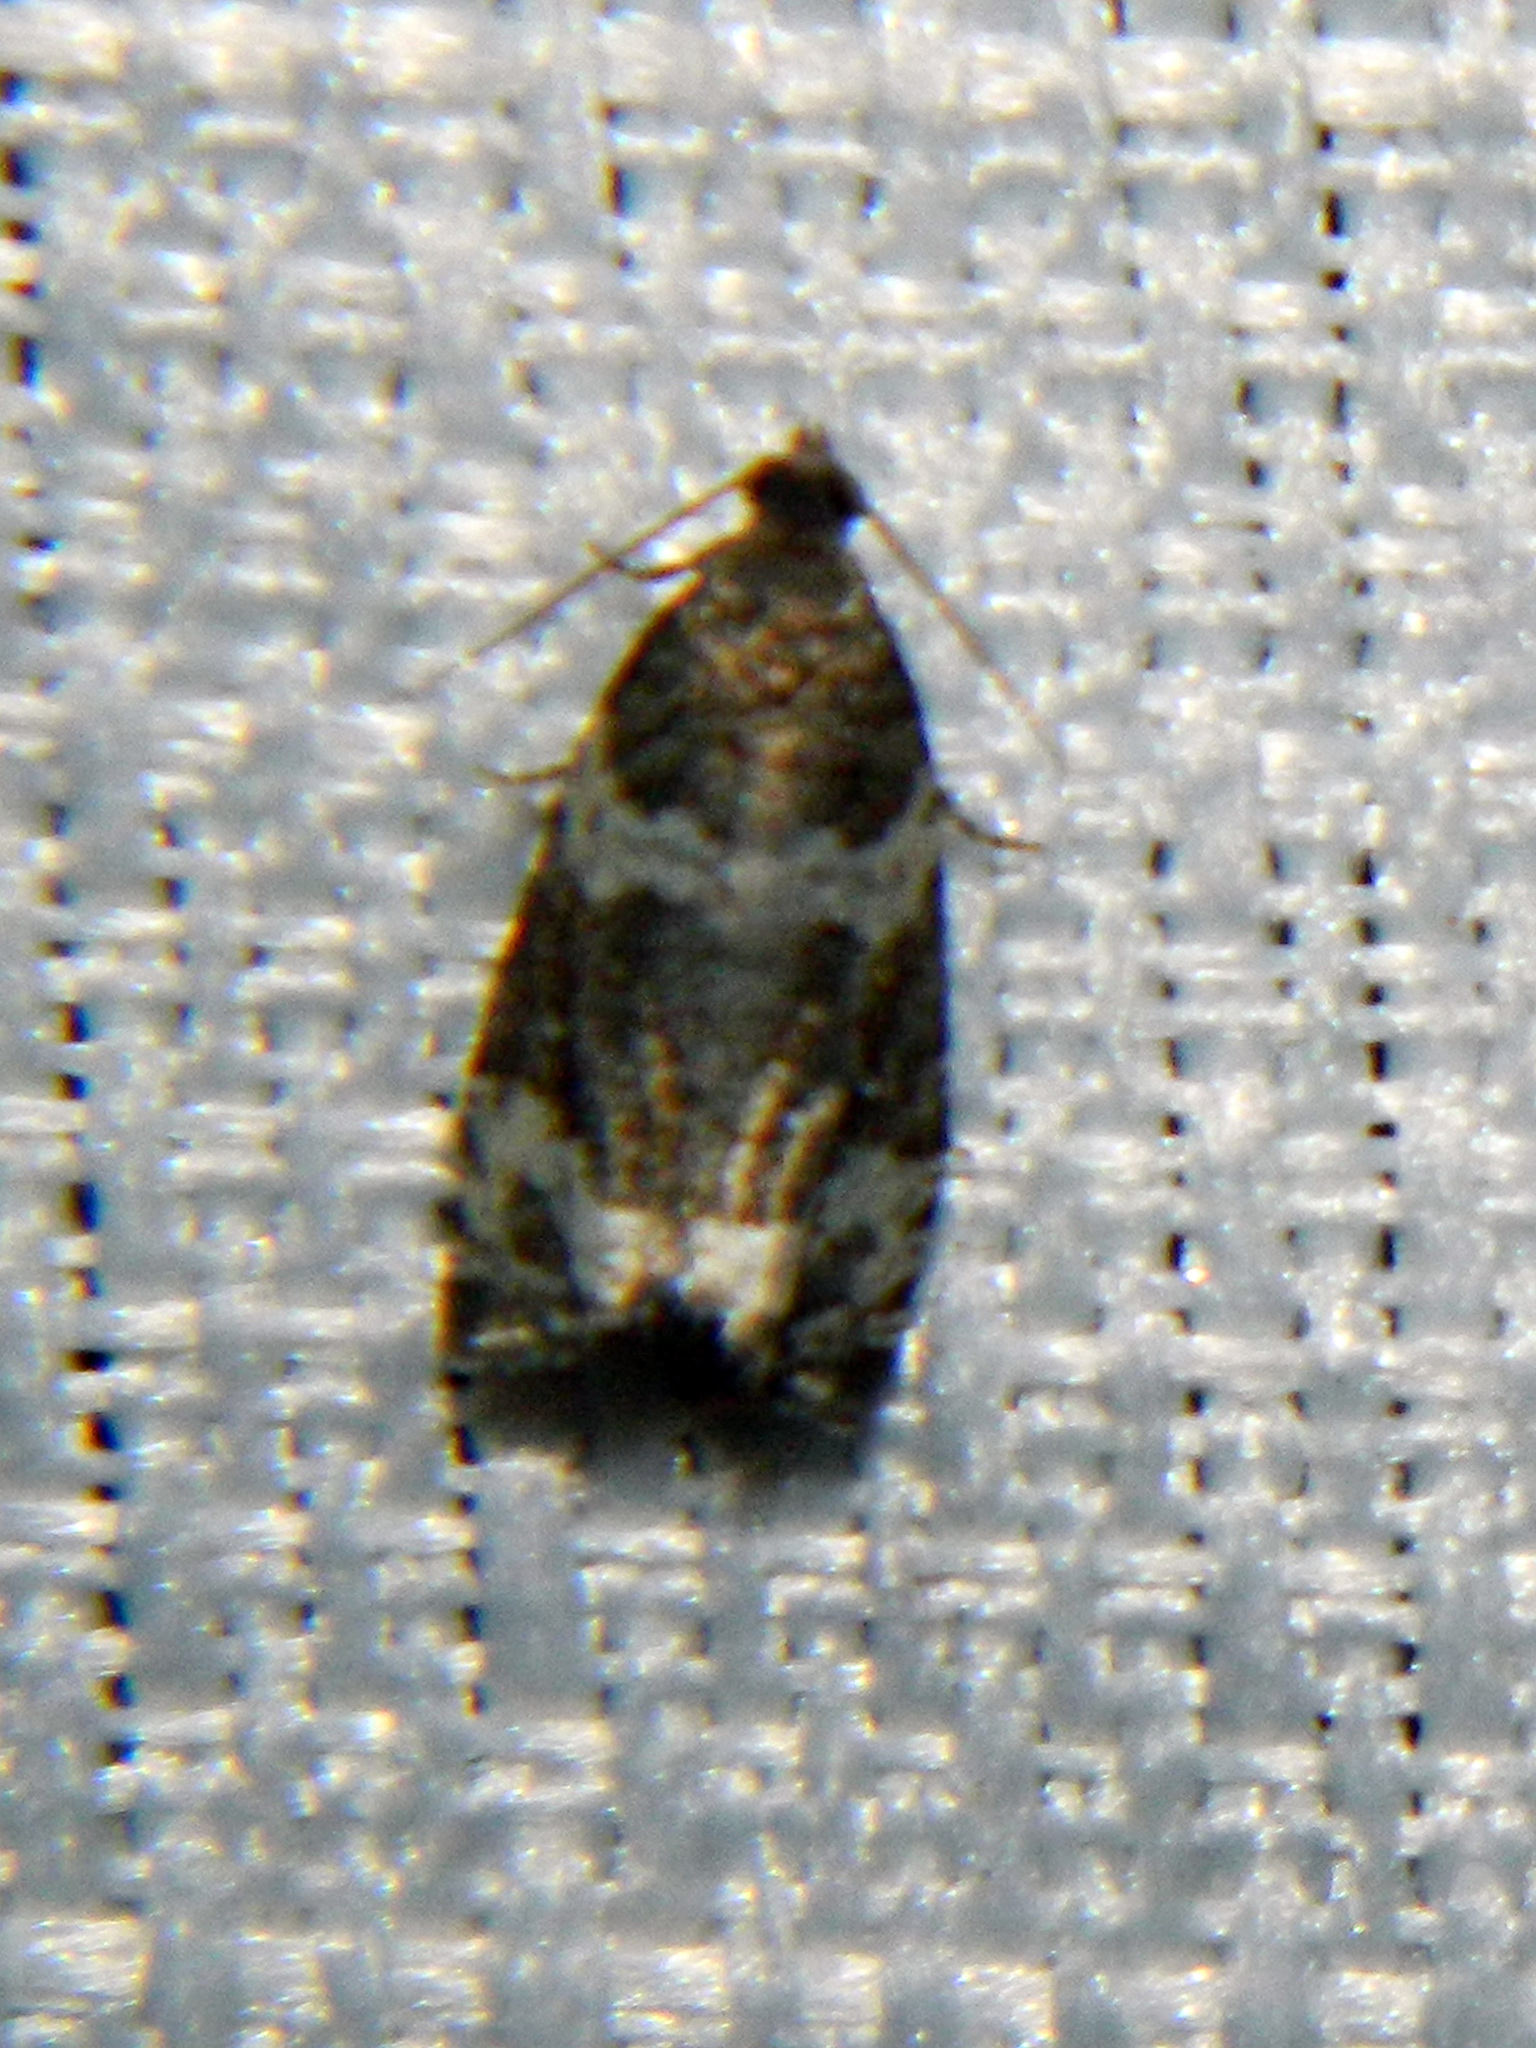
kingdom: Animalia
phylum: Arthropoda
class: Insecta
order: Lepidoptera
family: Tortricidae
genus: Olethreutes
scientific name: Olethreutes fasciatana
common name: Banded olethreutes moth
